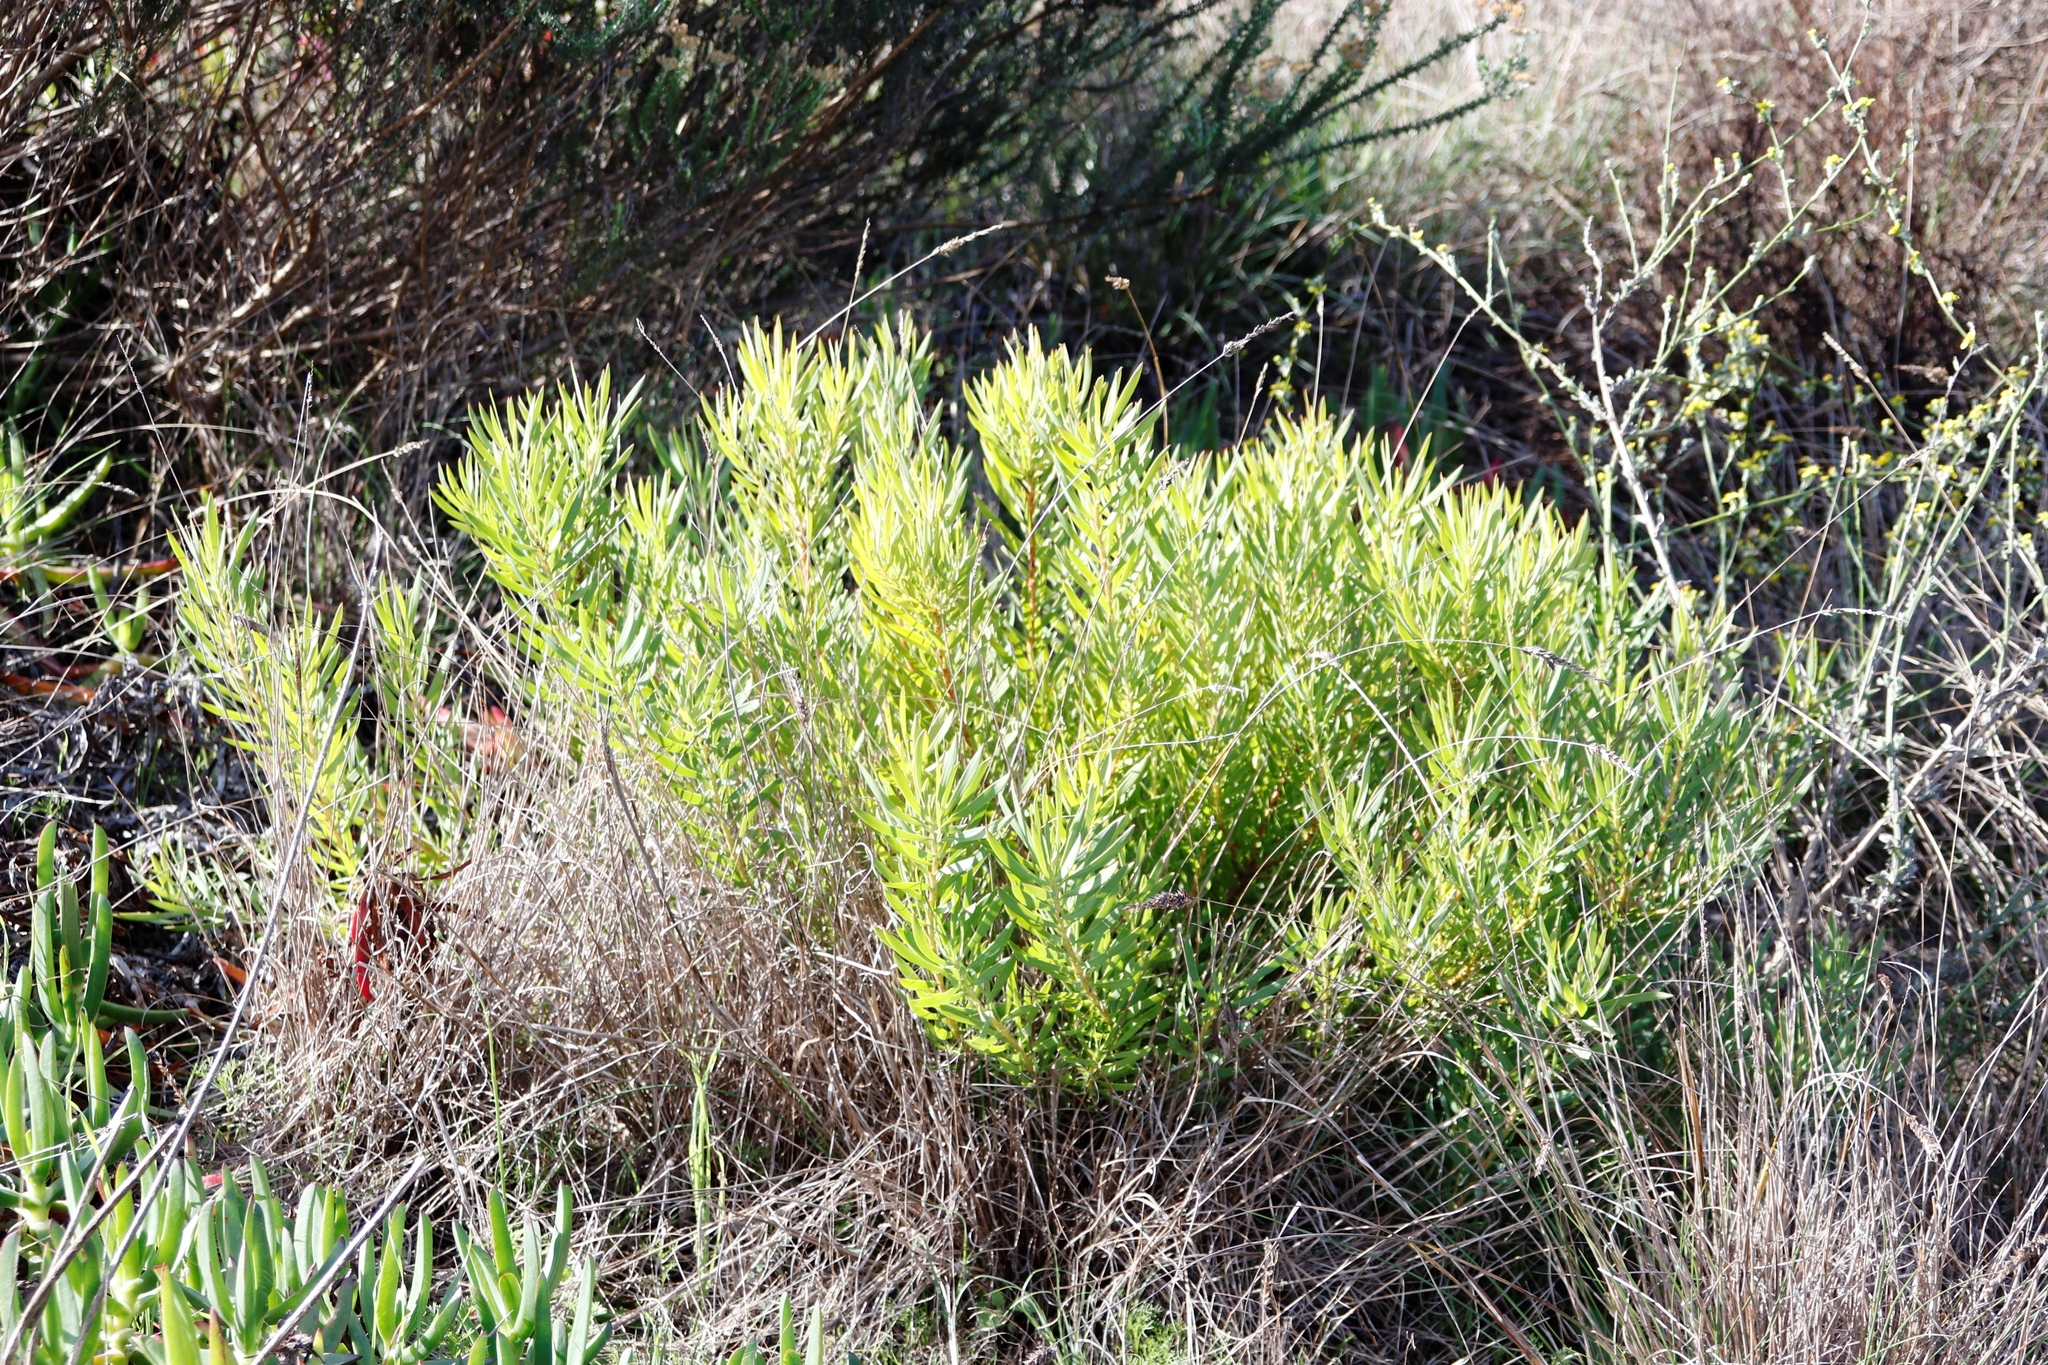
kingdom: Plantae
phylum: Tracheophyta
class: Magnoliopsida
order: Proteales
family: Proteaceae
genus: Leucadendron
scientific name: Leucadendron salignum
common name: Common sunshine conebush
